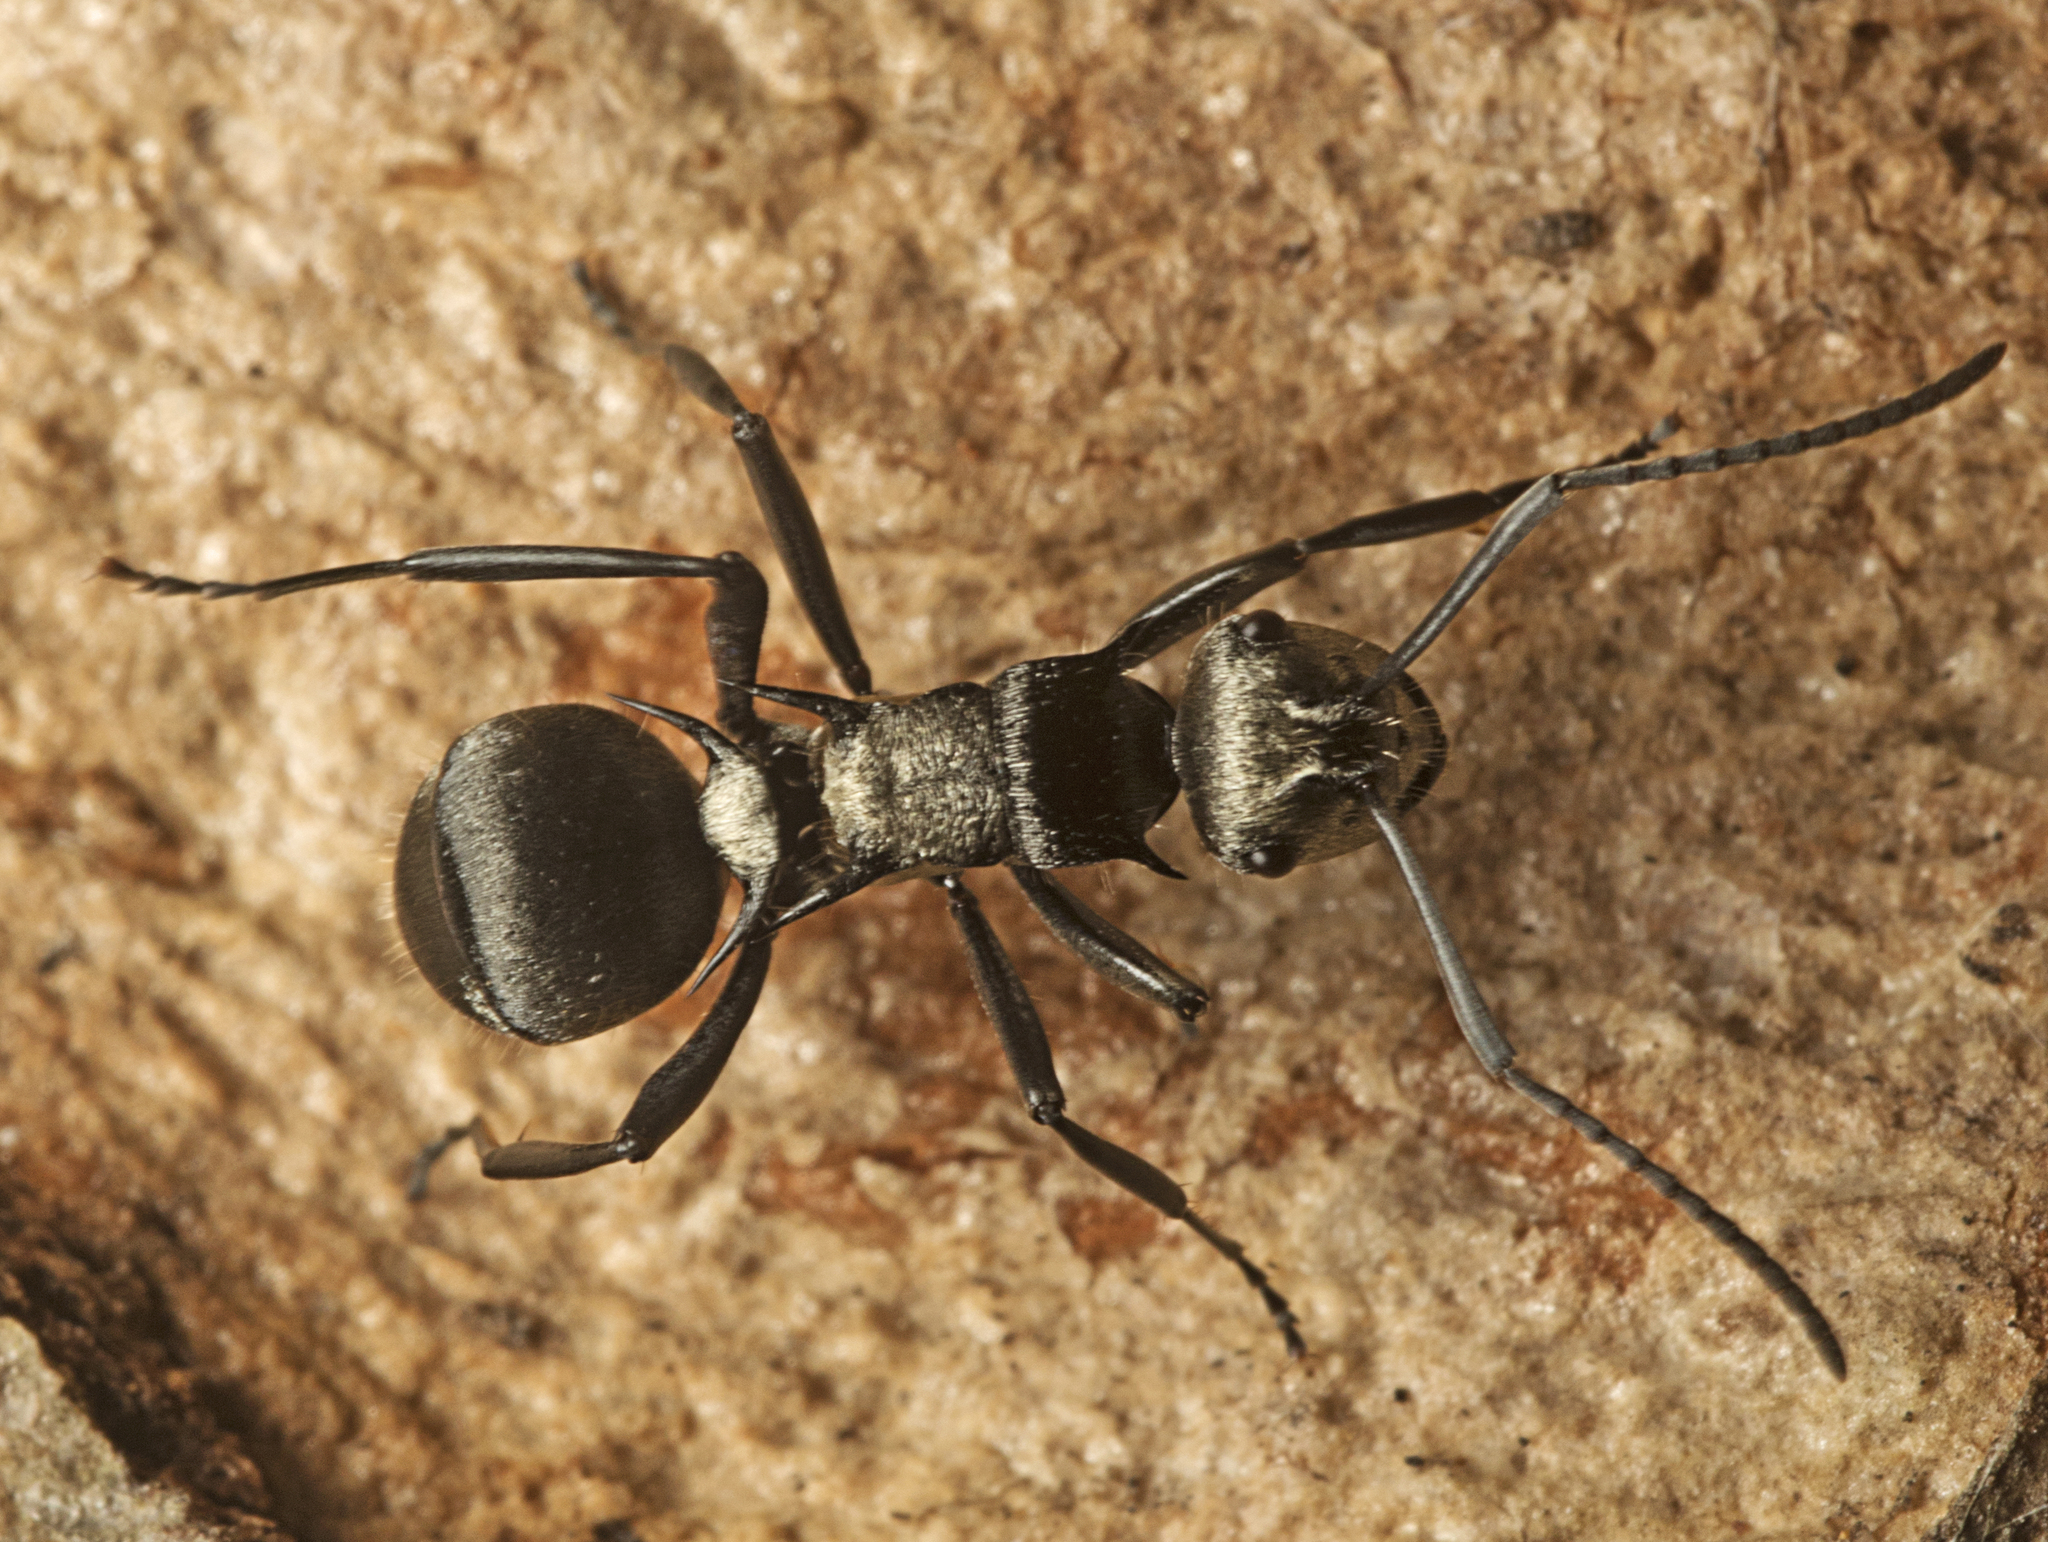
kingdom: Animalia
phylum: Arthropoda
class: Insecta
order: Hymenoptera
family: Formicidae
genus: Polyrhachis
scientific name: Polyrhachis daemeli
